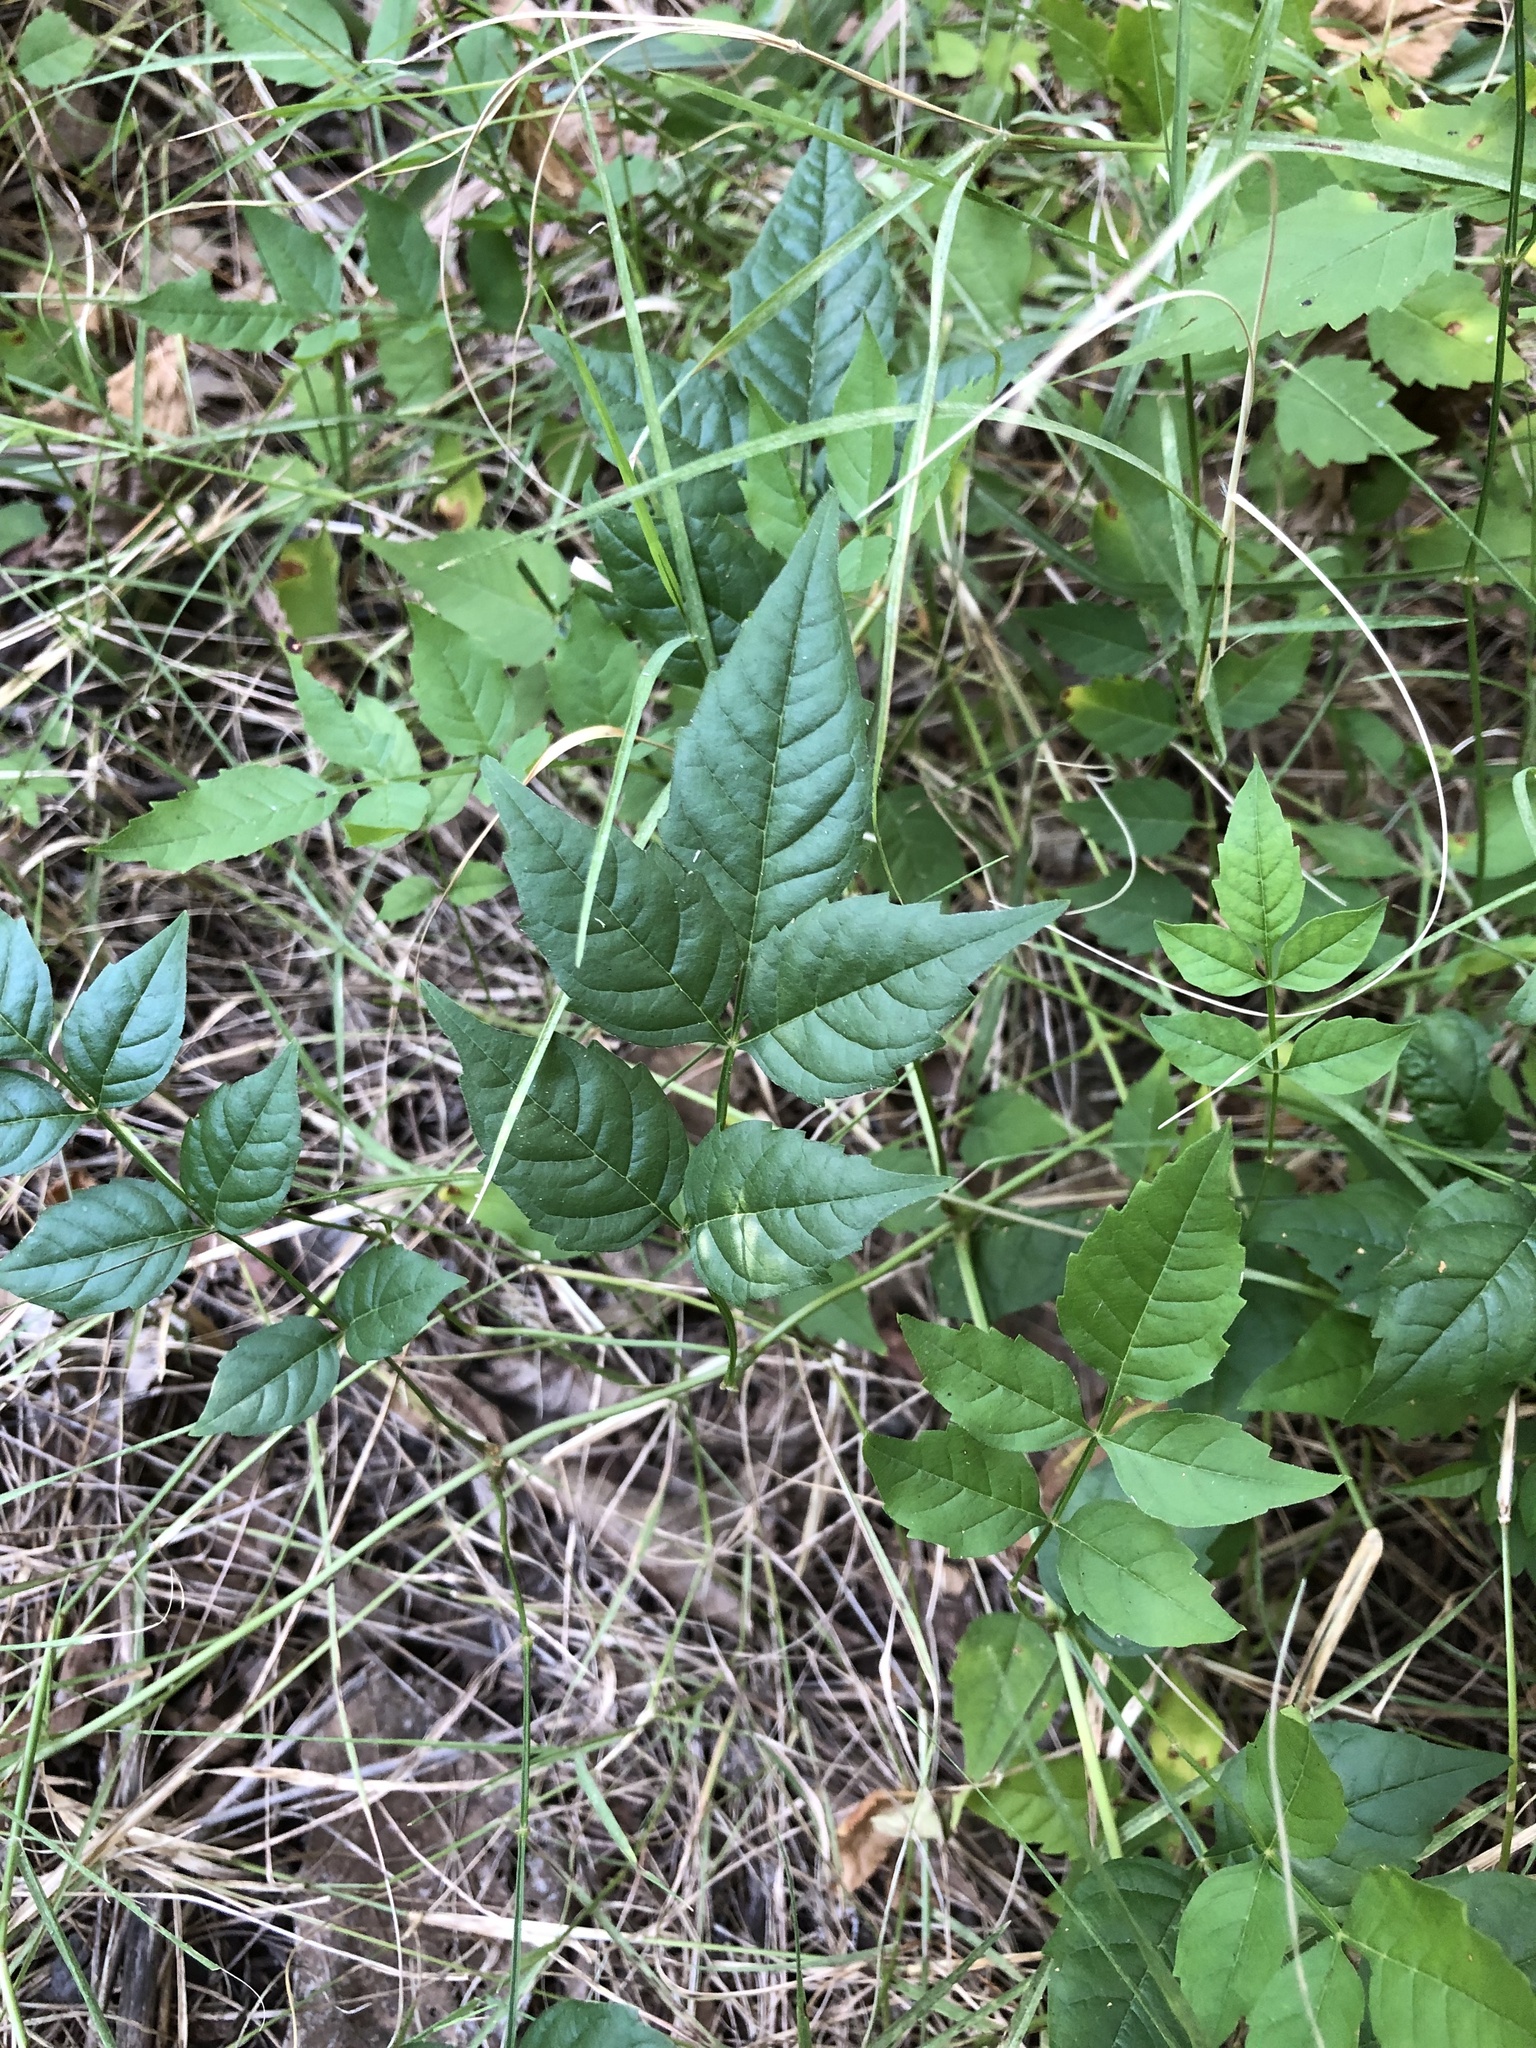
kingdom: Plantae
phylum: Tracheophyta
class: Magnoliopsida
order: Lamiales
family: Bignoniaceae
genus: Campsis
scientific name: Campsis radicans
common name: Trumpet-creeper
